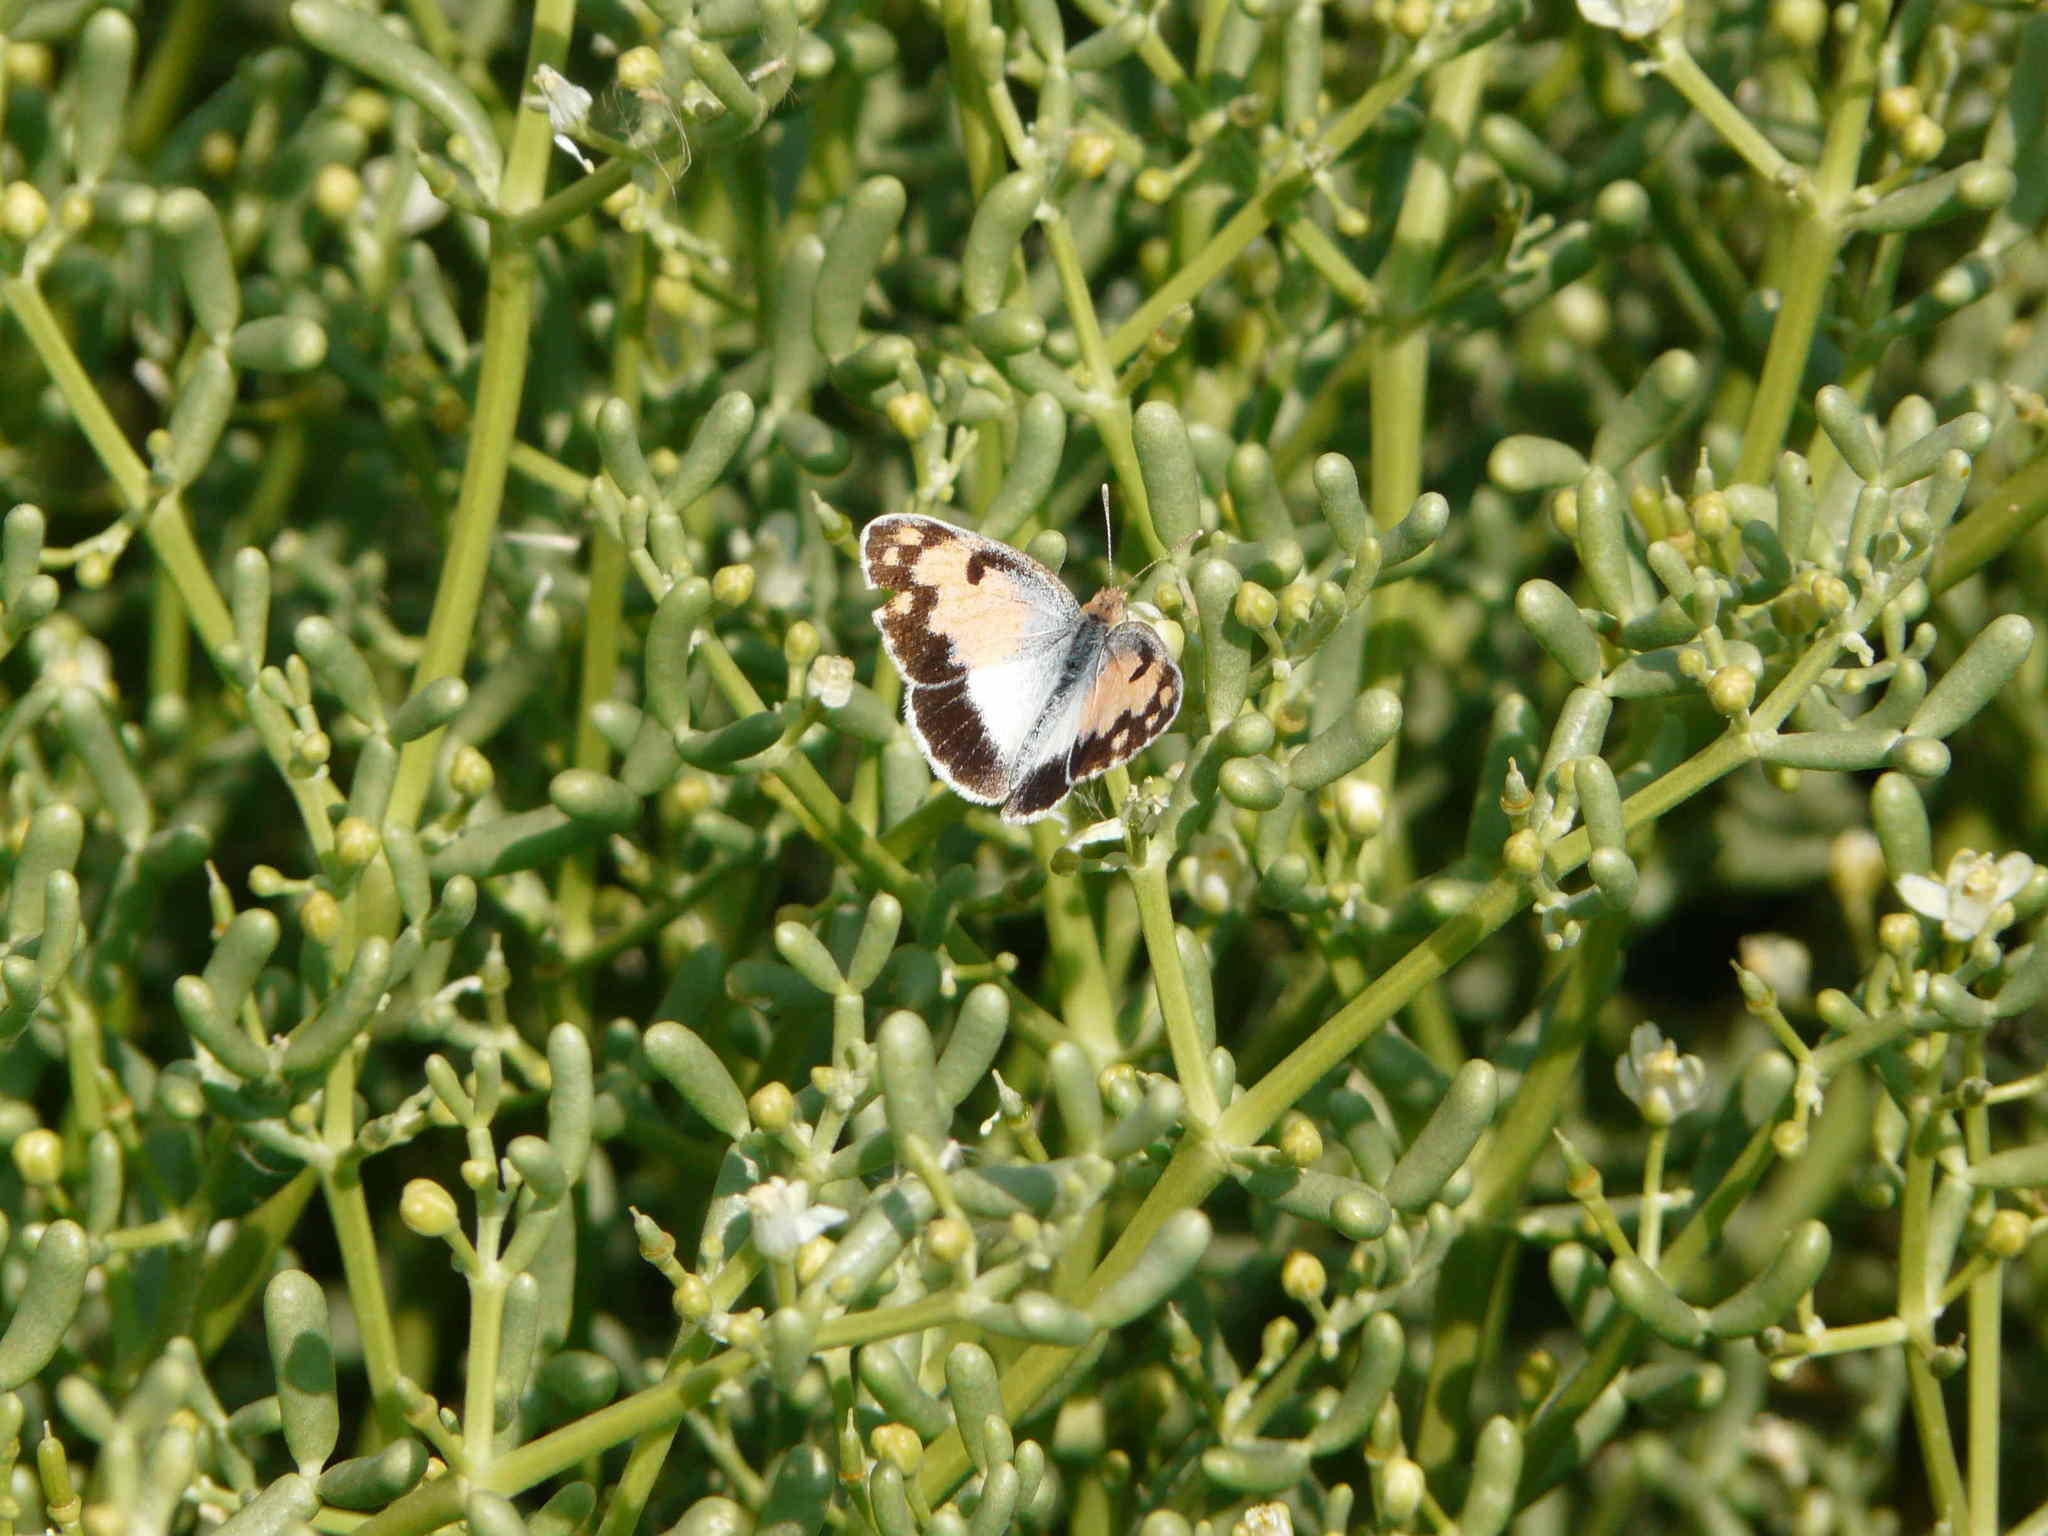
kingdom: Animalia
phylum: Arthropoda
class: Insecta
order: Lepidoptera
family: Pieridae
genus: Colotis
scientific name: Colotis phisadia
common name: Blue spotted arab
